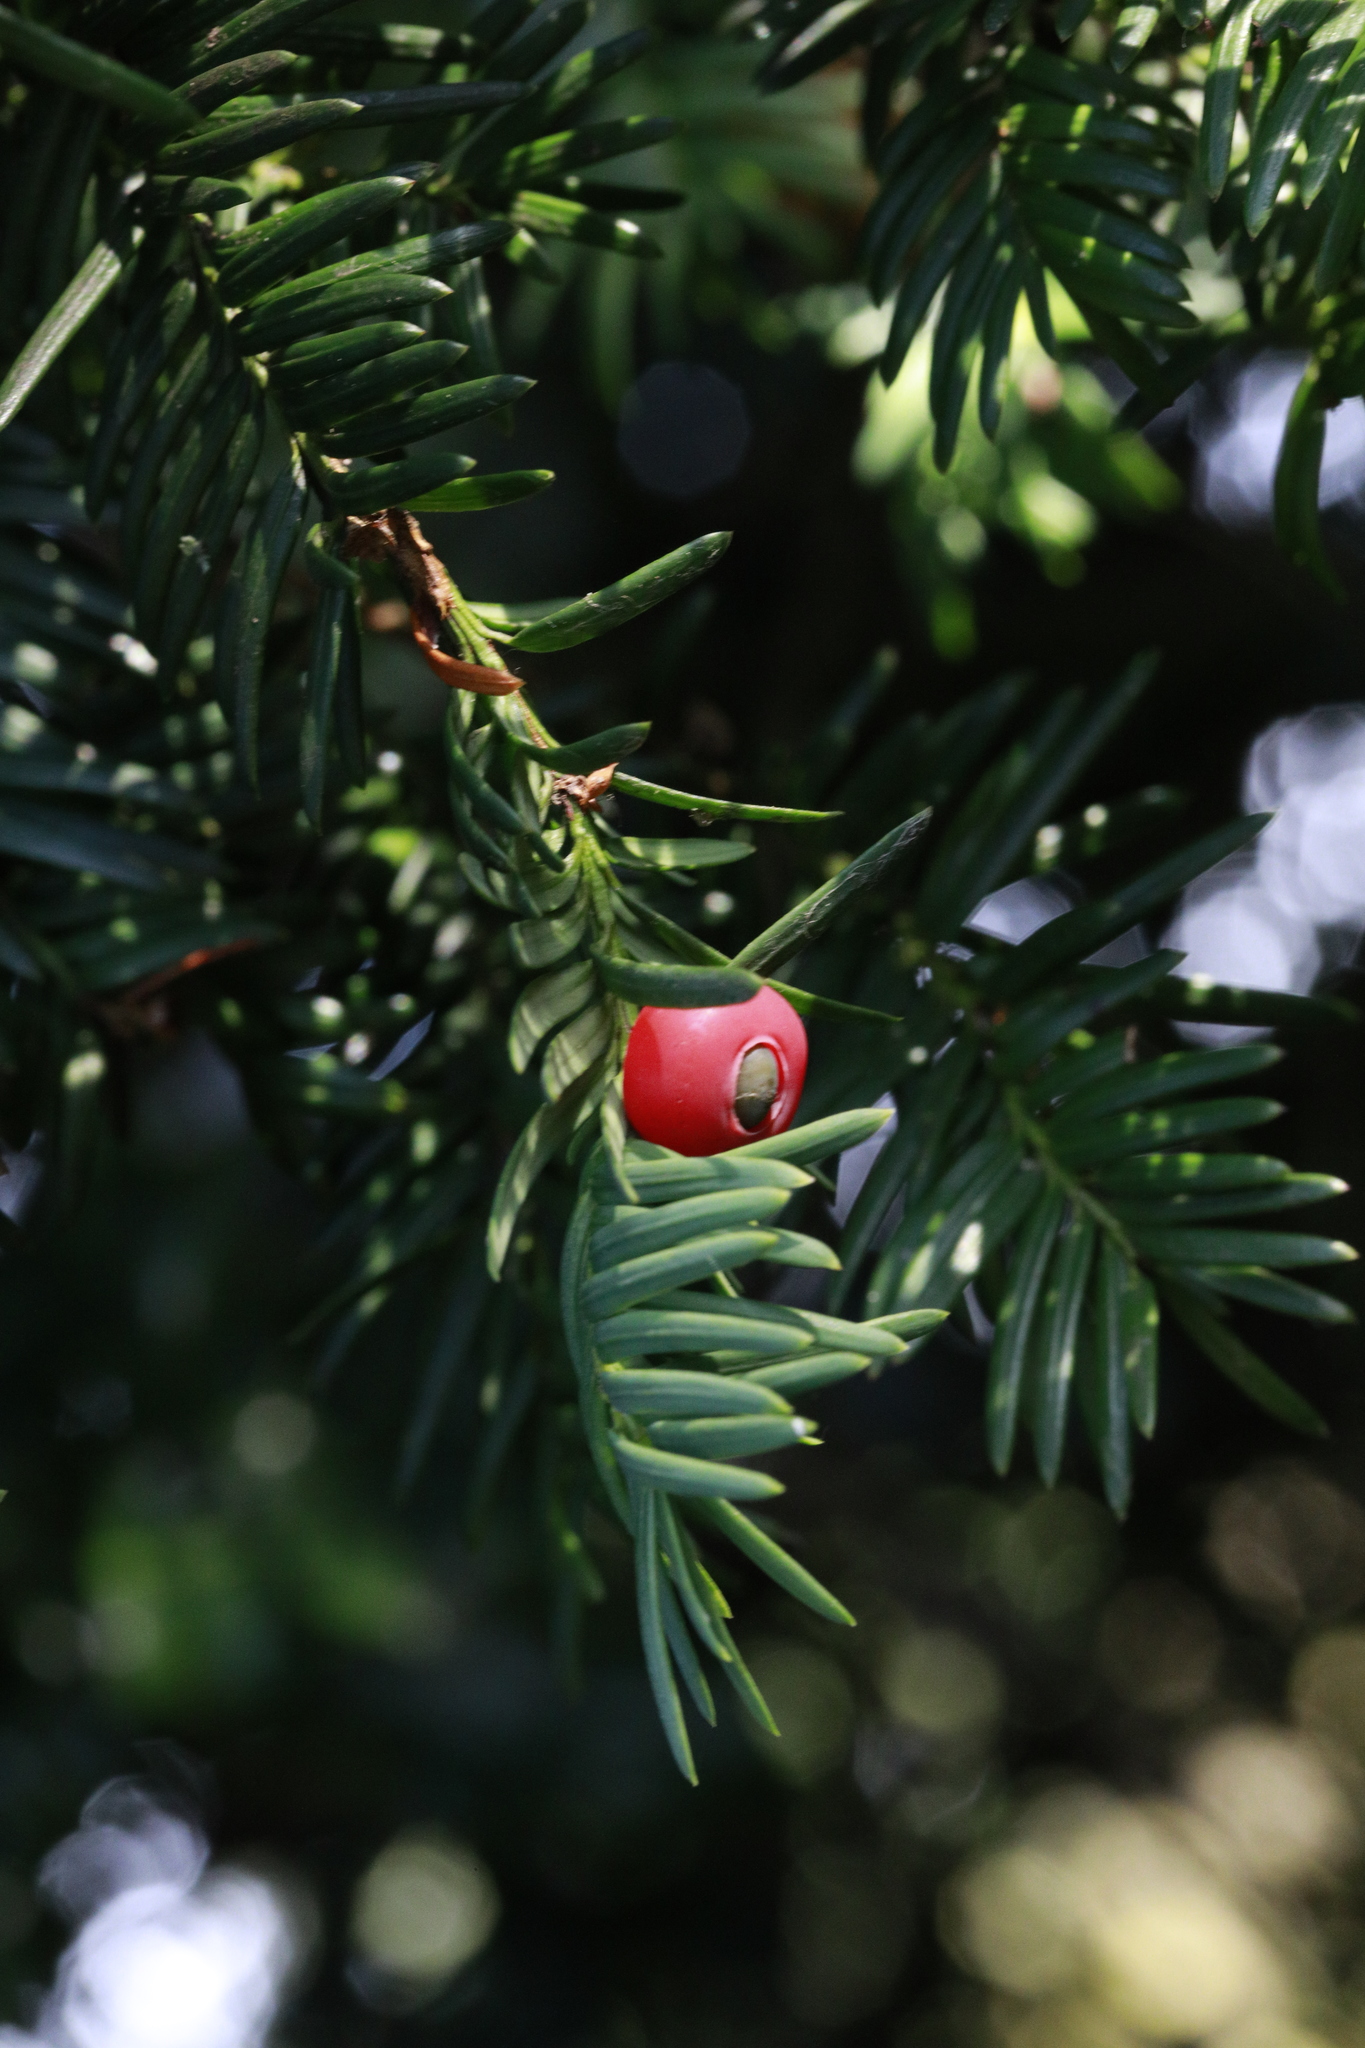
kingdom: Plantae
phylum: Tracheophyta
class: Pinopsida
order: Pinales
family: Taxaceae
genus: Taxus
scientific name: Taxus baccata
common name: Yew
